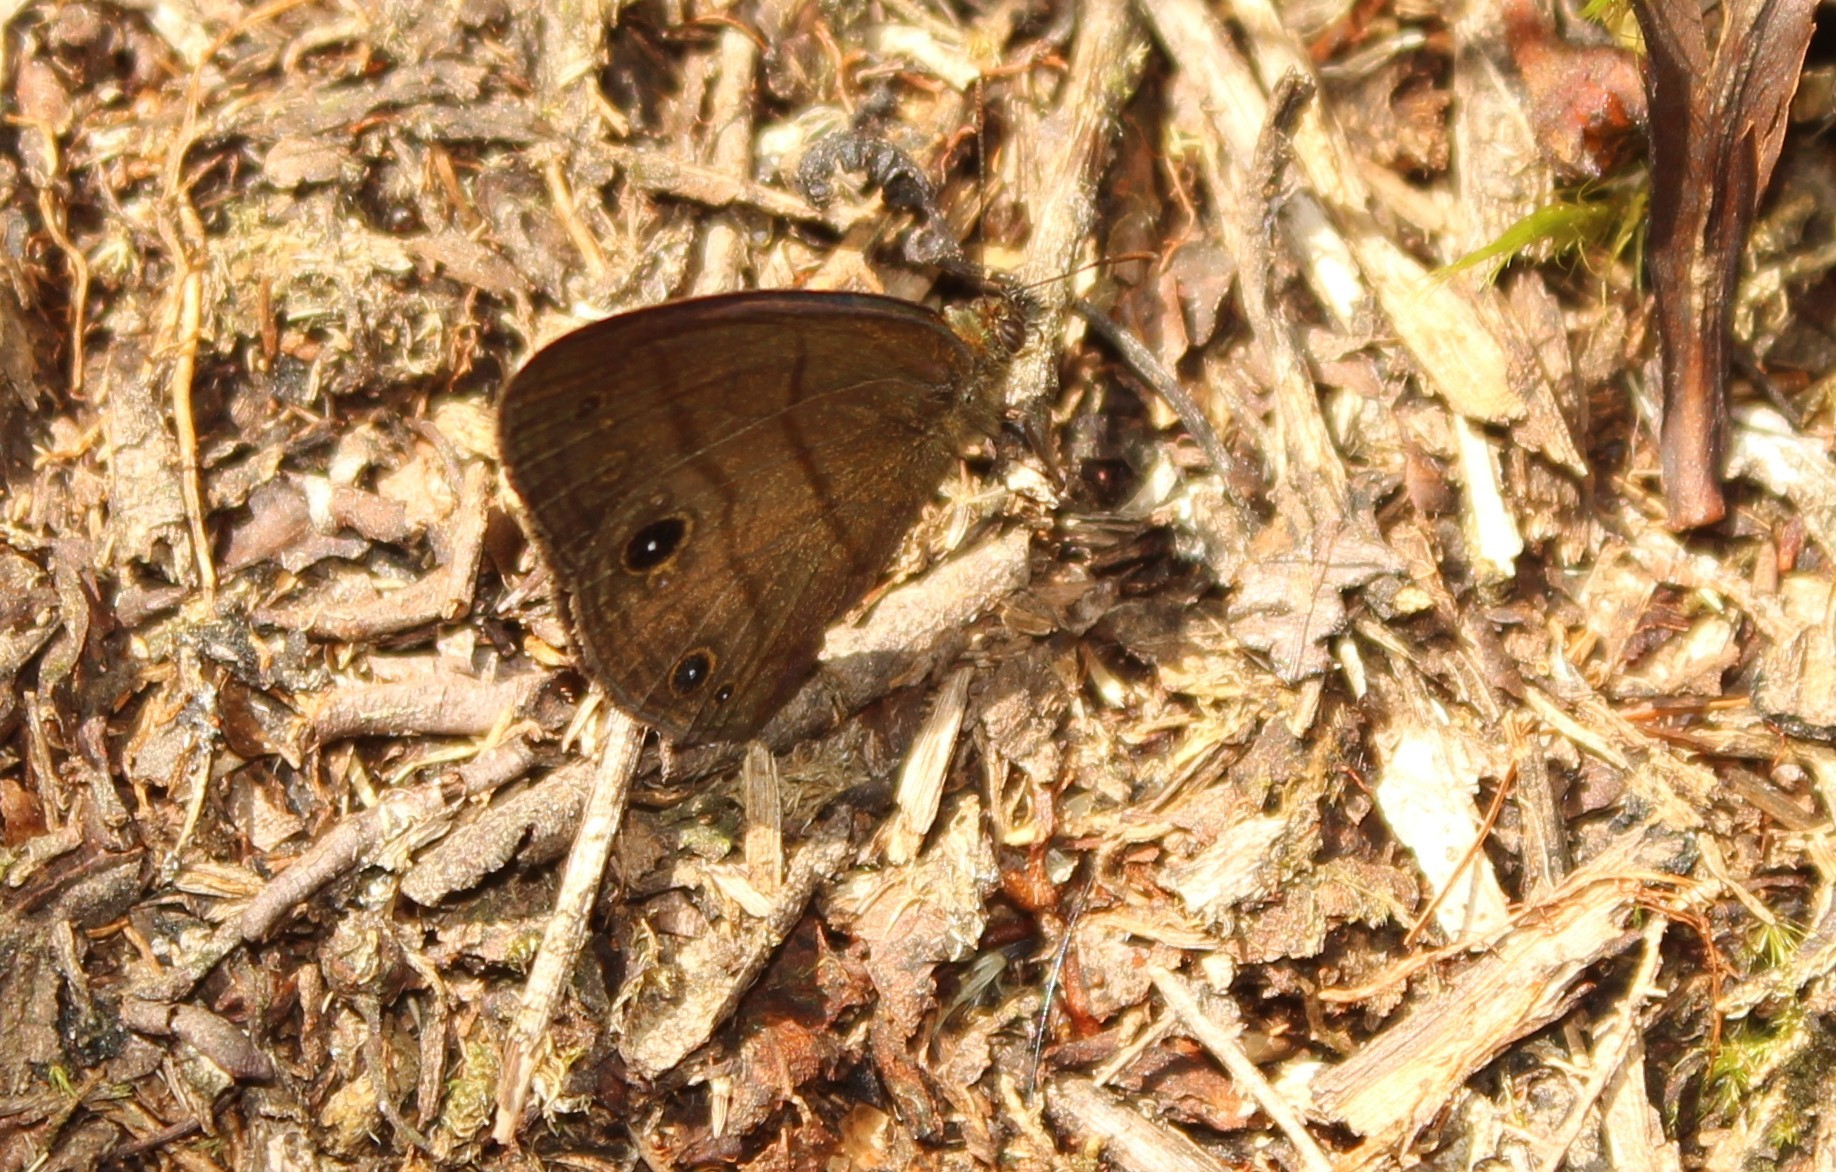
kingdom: Animalia
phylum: Arthropoda
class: Insecta
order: Lepidoptera
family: Nymphalidae
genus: Hermeuptychia
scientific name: Hermeuptychia harmonia
